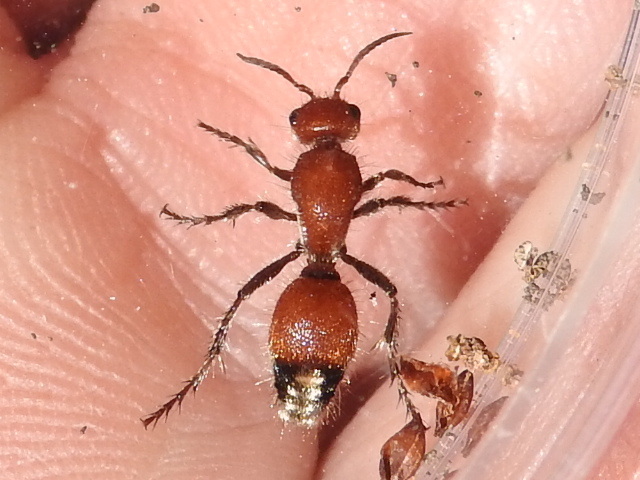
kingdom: Animalia
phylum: Arthropoda
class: Insecta
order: Hymenoptera
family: Mutillidae
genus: Dasymutilla
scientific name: Dasymutilla
